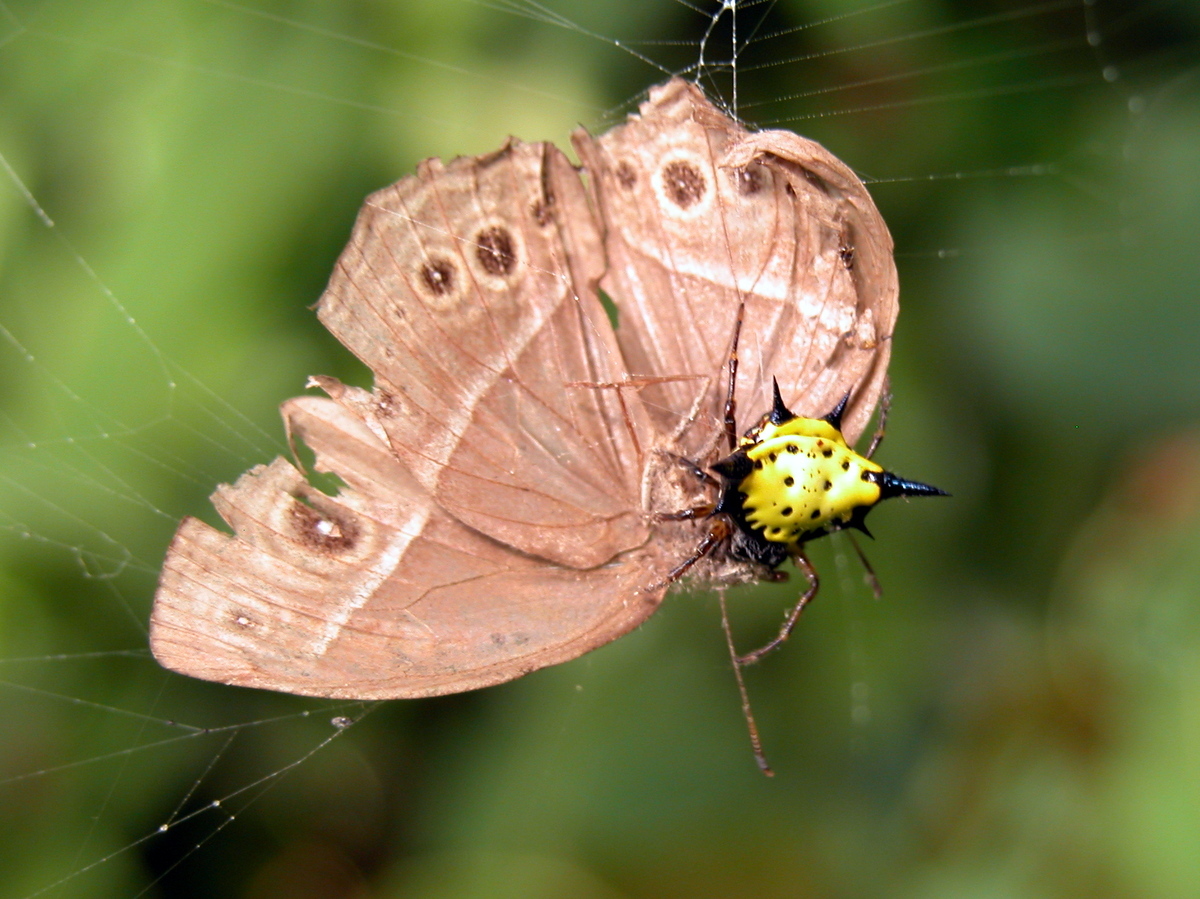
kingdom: Animalia
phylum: Arthropoda
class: Arachnida
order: Araneae
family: Araneidae
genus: Macracantha
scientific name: Macracantha hasselti
